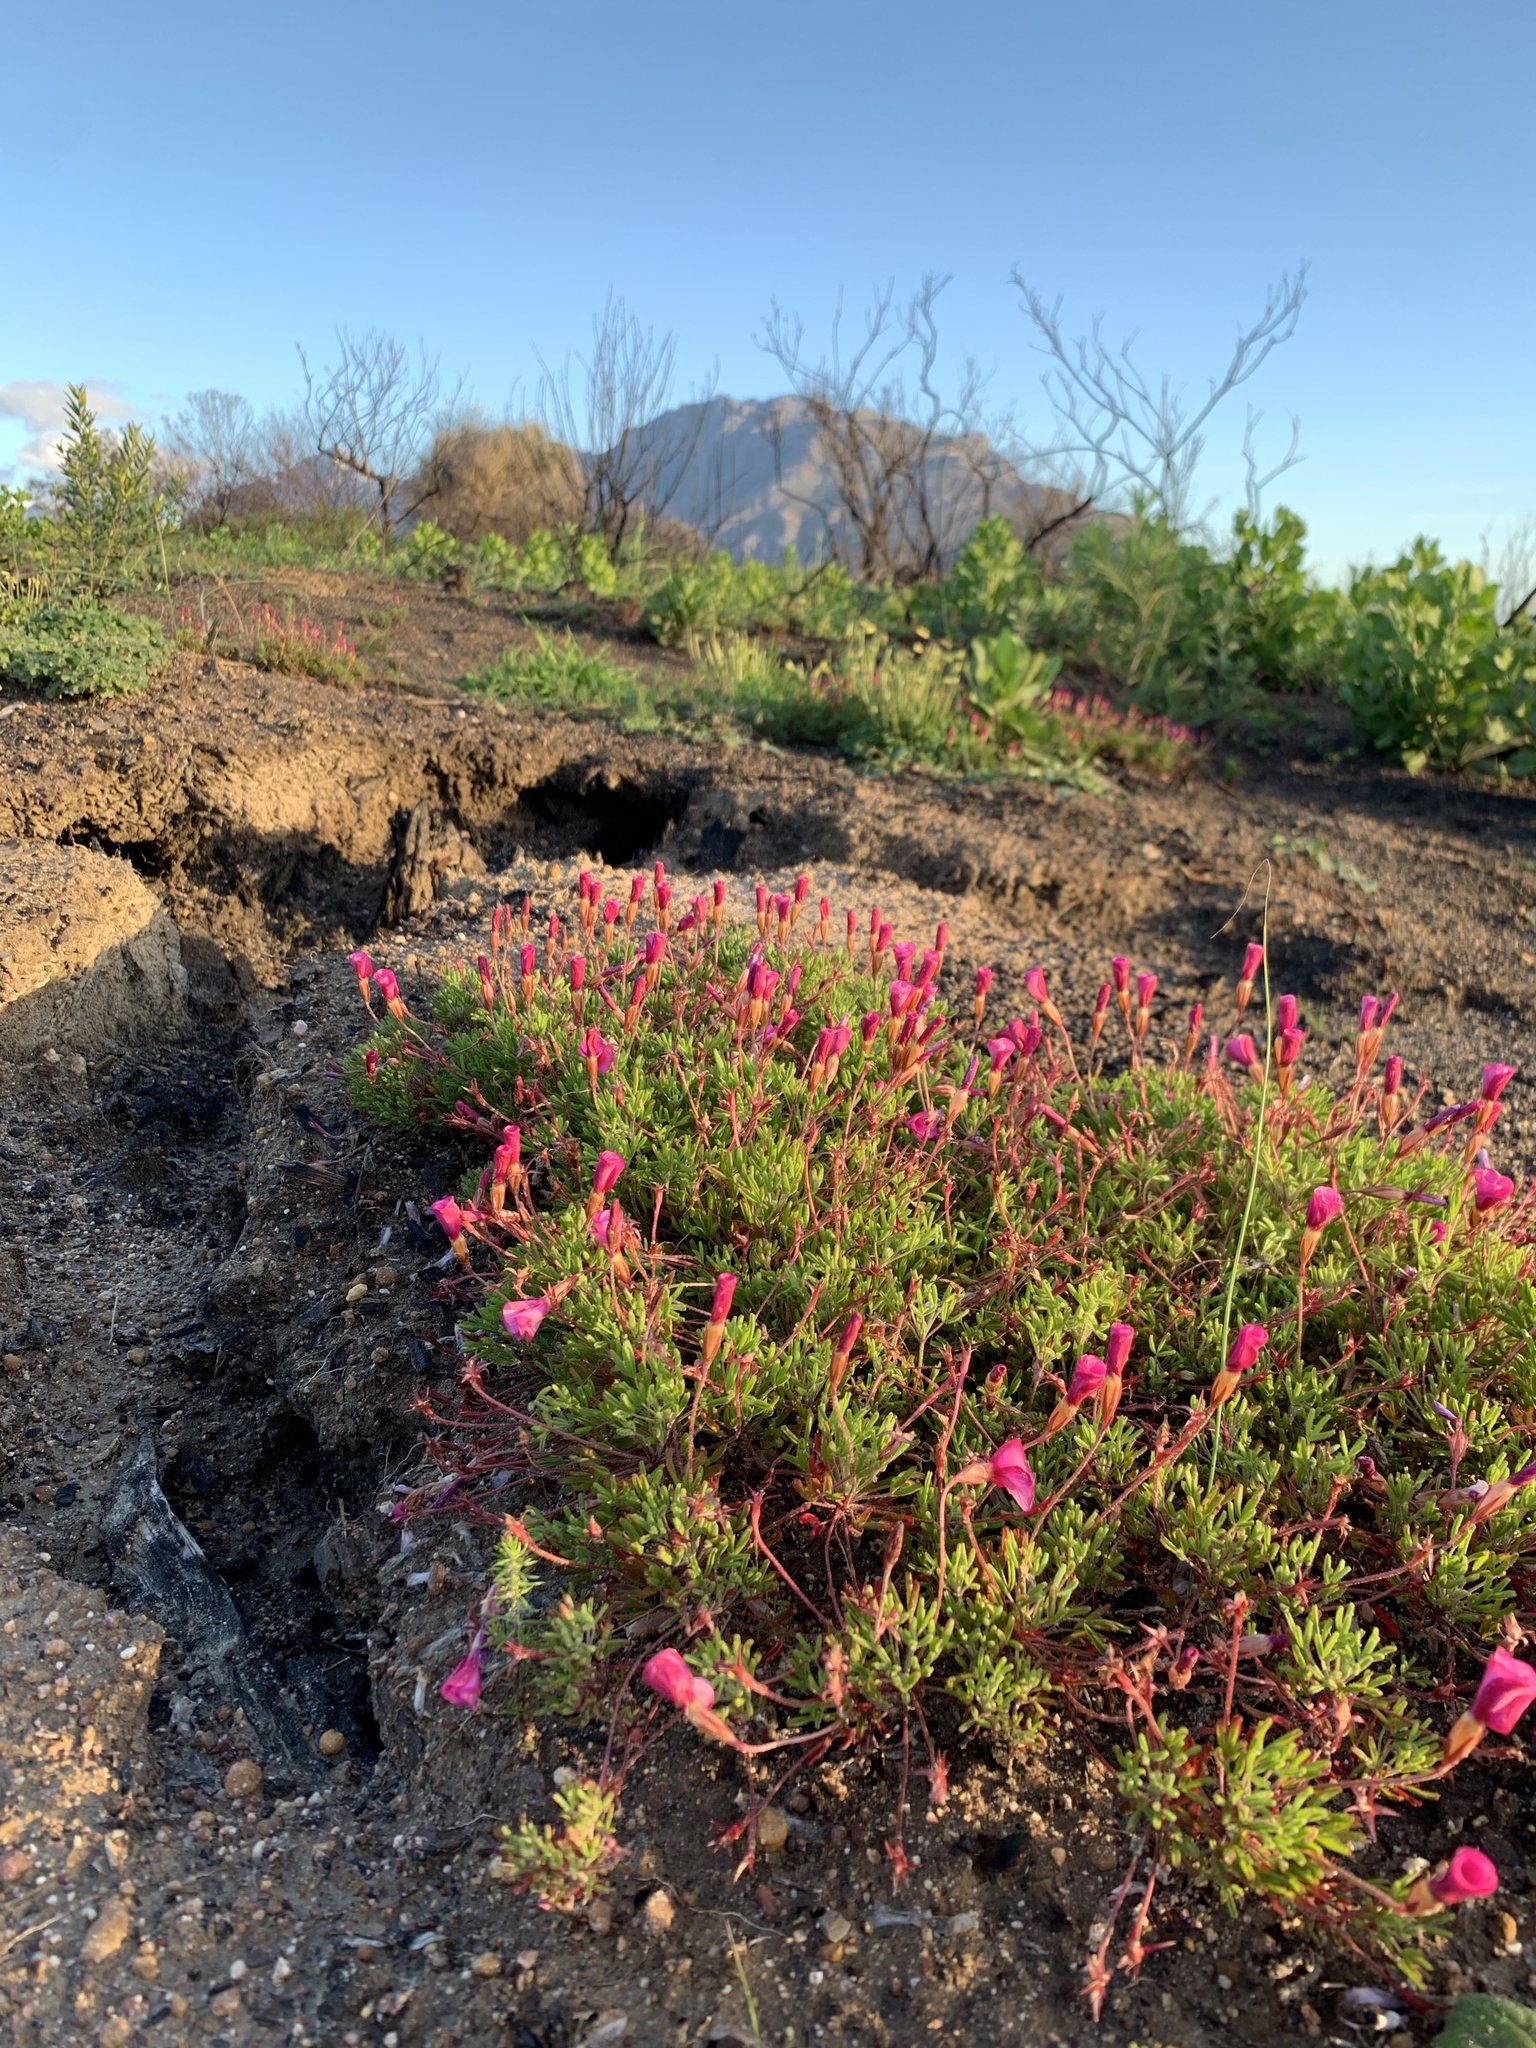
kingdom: Plantae
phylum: Tracheophyta
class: Magnoliopsida
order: Oxalidales
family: Oxalidaceae
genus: Oxalis
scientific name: Oxalis glabra
